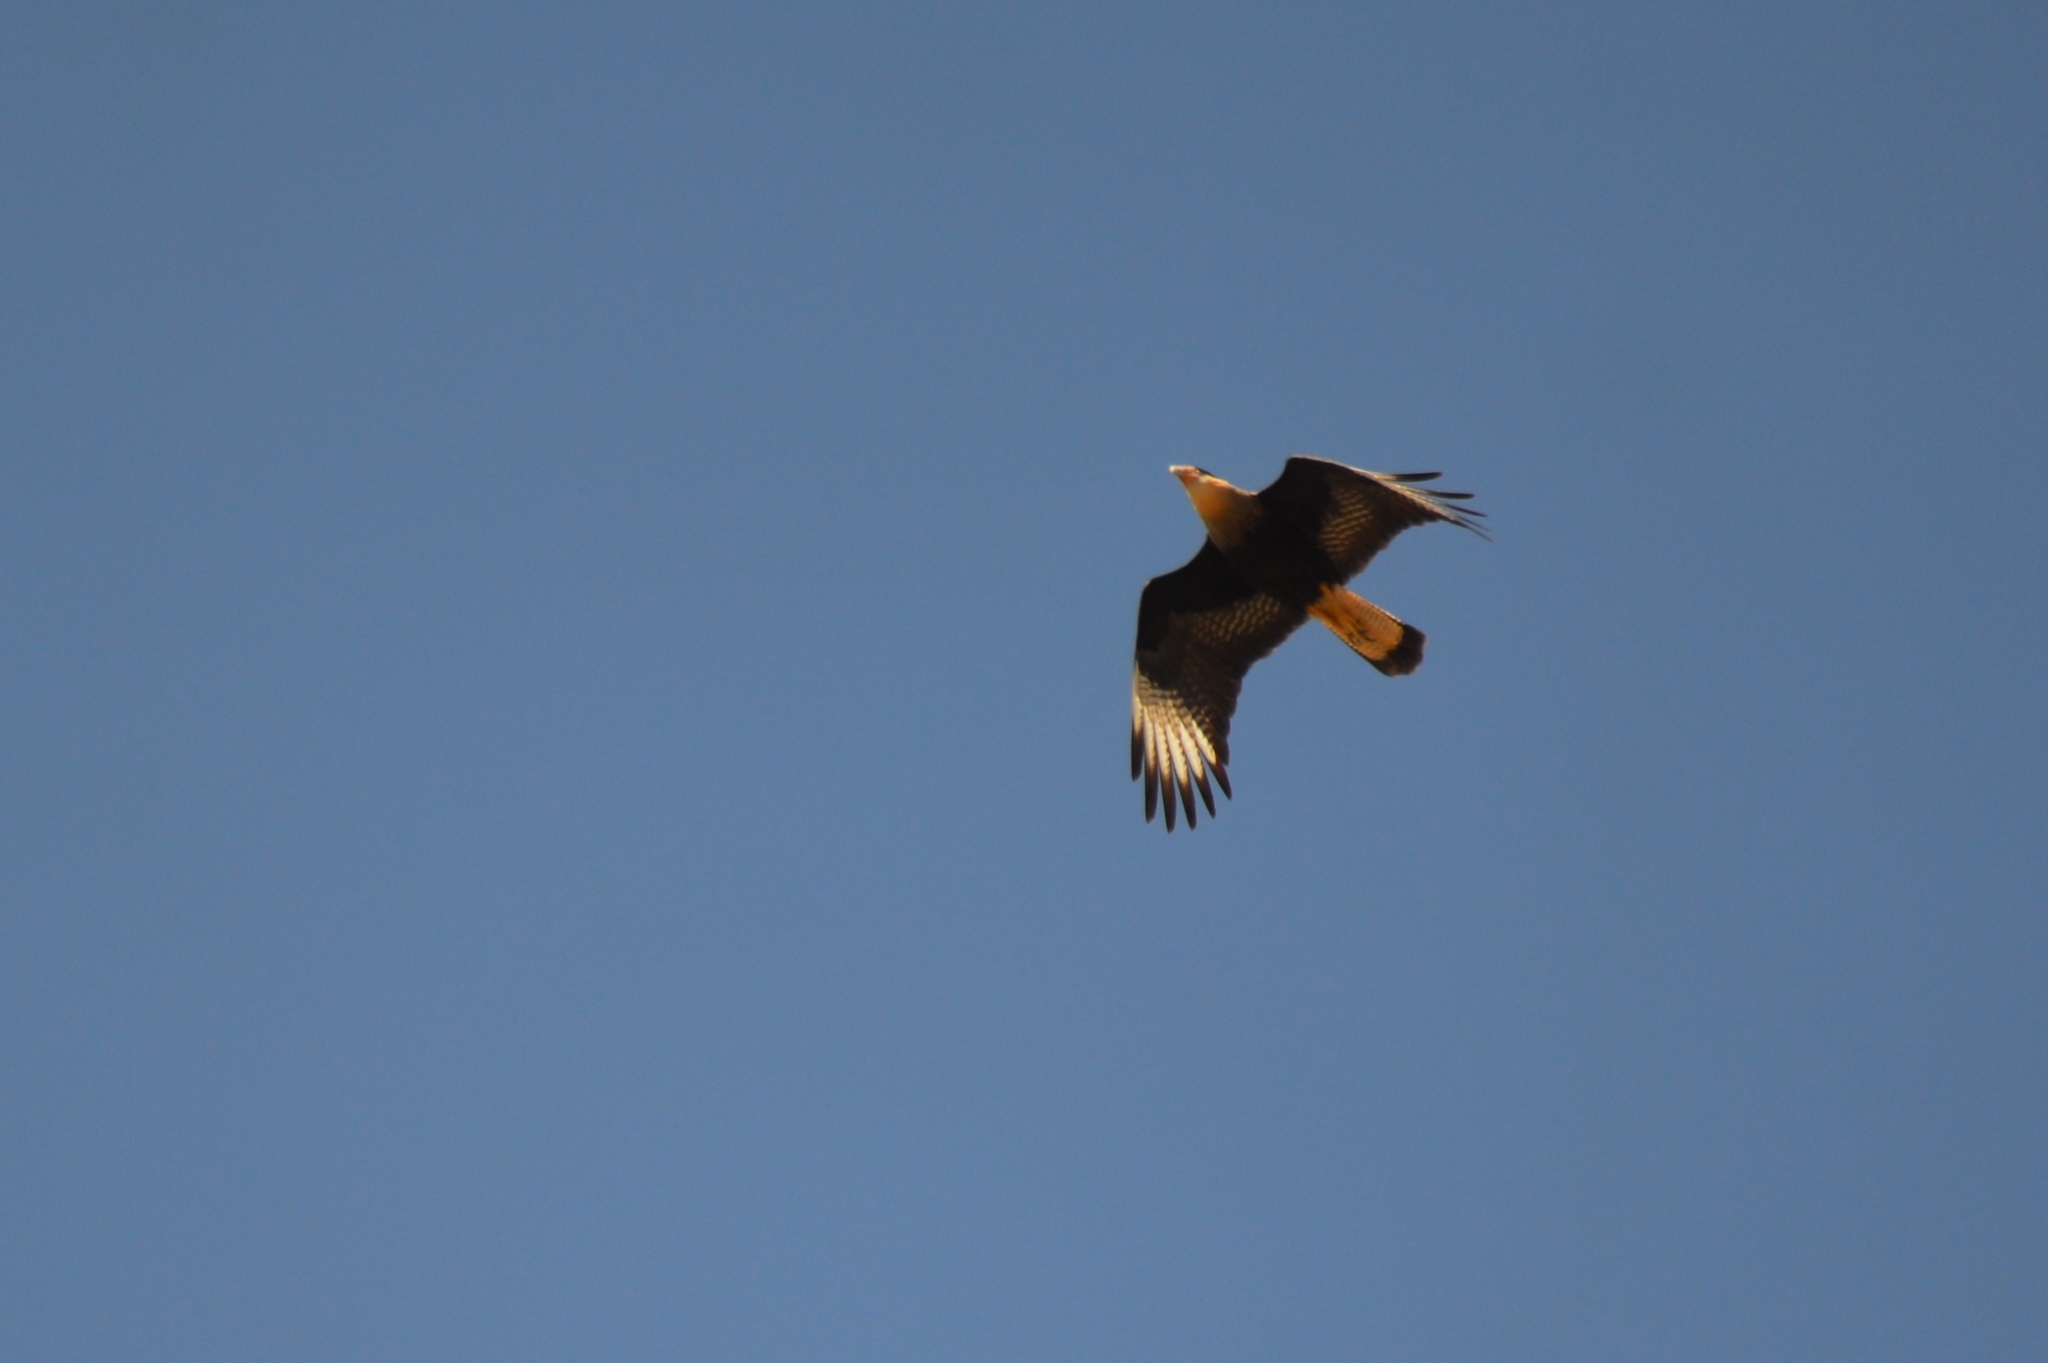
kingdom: Animalia
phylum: Chordata
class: Aves
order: Falconiformes
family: Falconidae
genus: Caracara
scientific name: Caracara plancus
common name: Southern caracara
